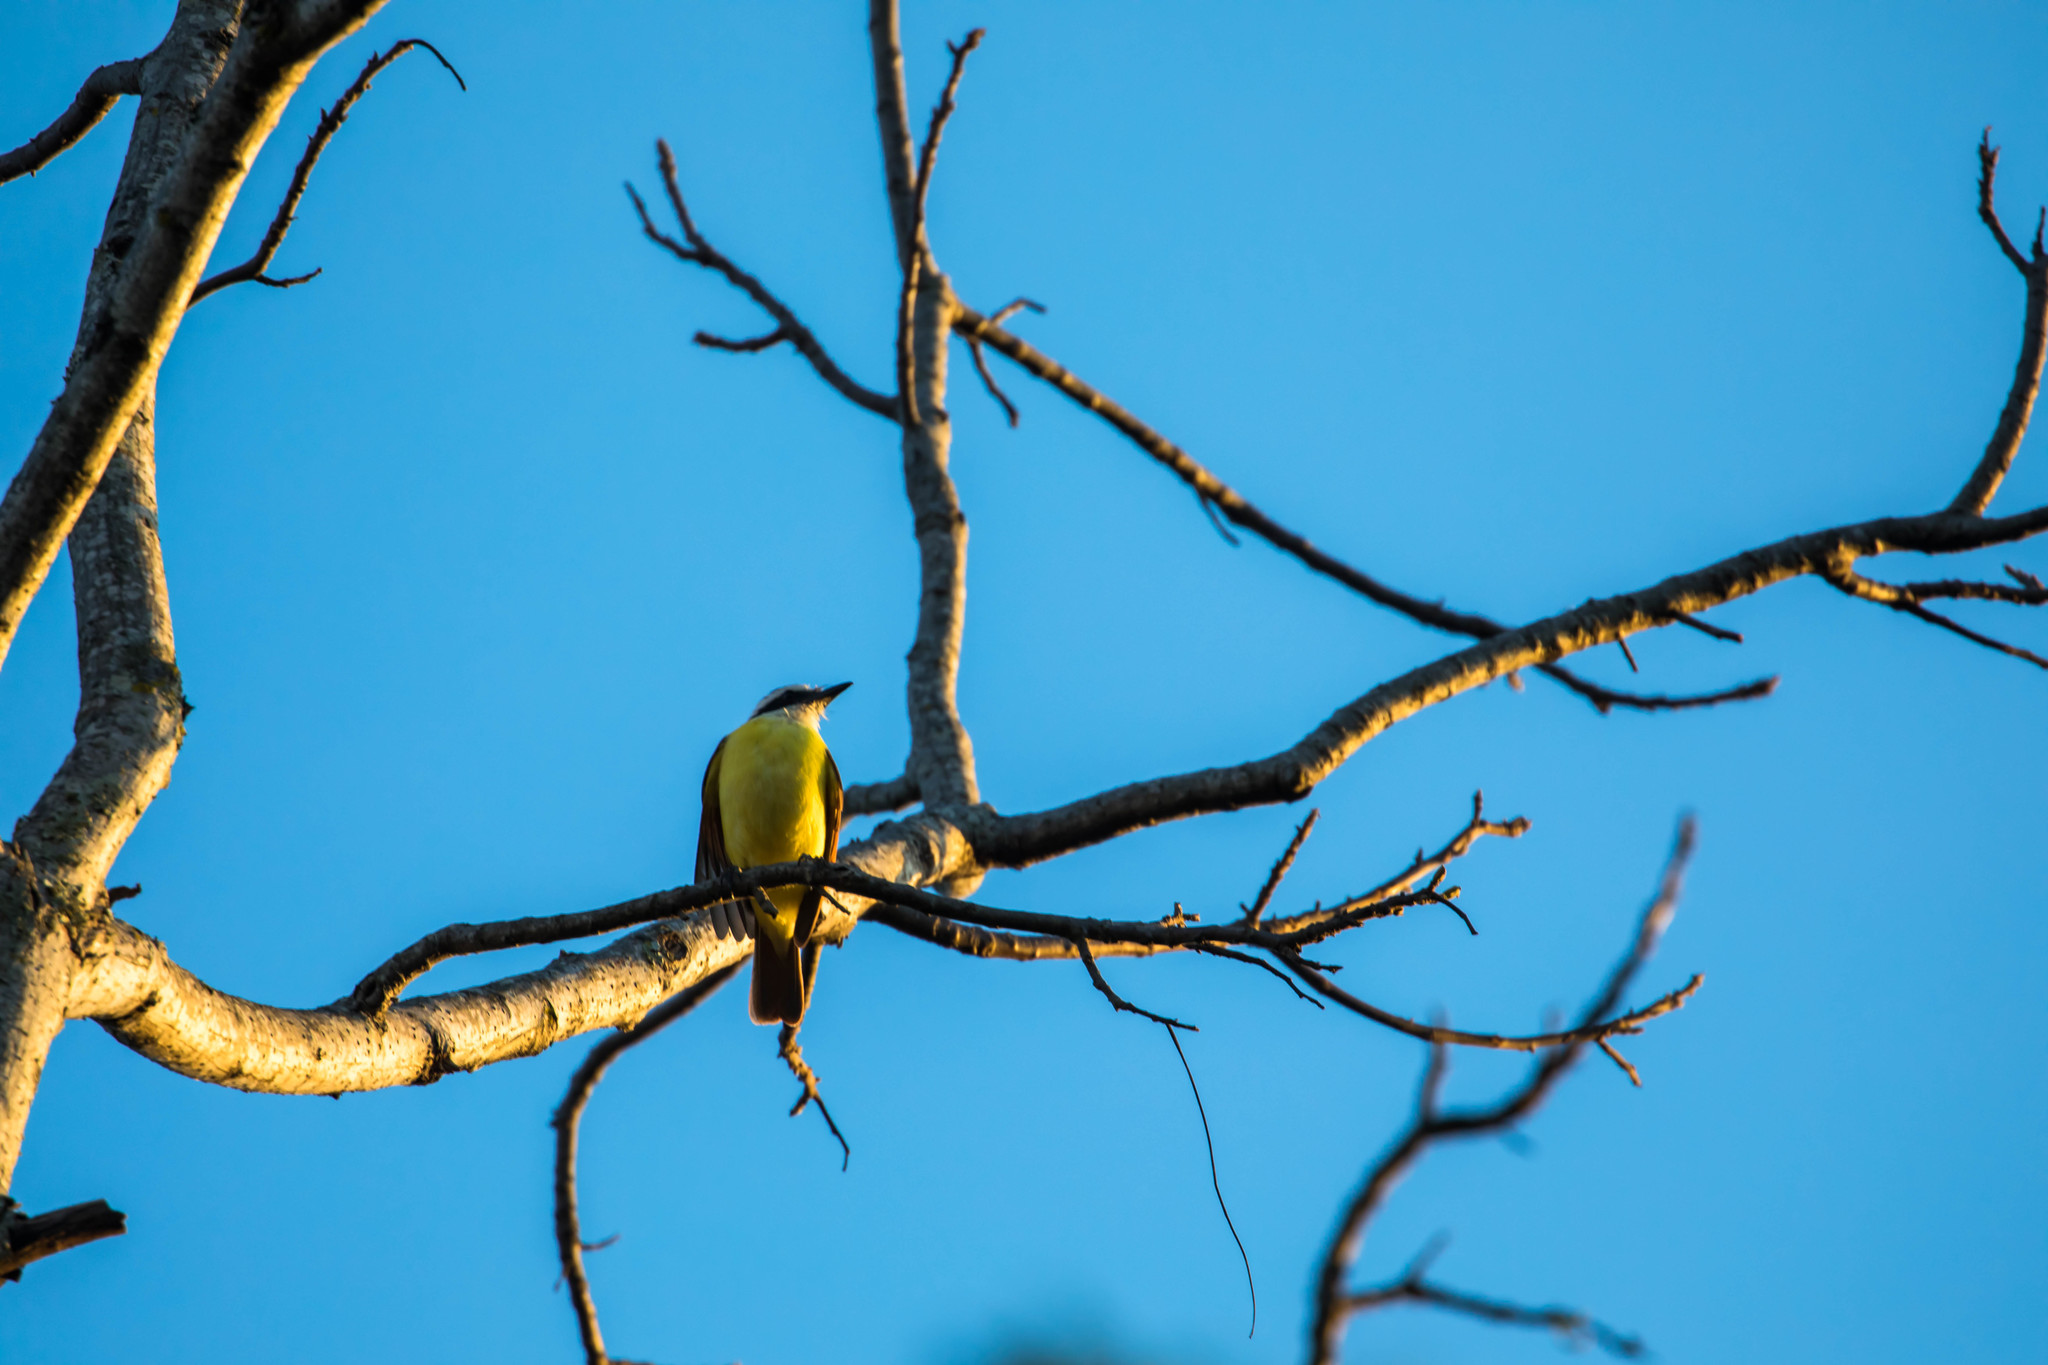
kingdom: Animalia
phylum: Chordata
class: Aves
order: Passeriformes
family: Tyrannidae
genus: Pitangus
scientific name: Pitangus sulphuratus
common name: Great kiskadee
